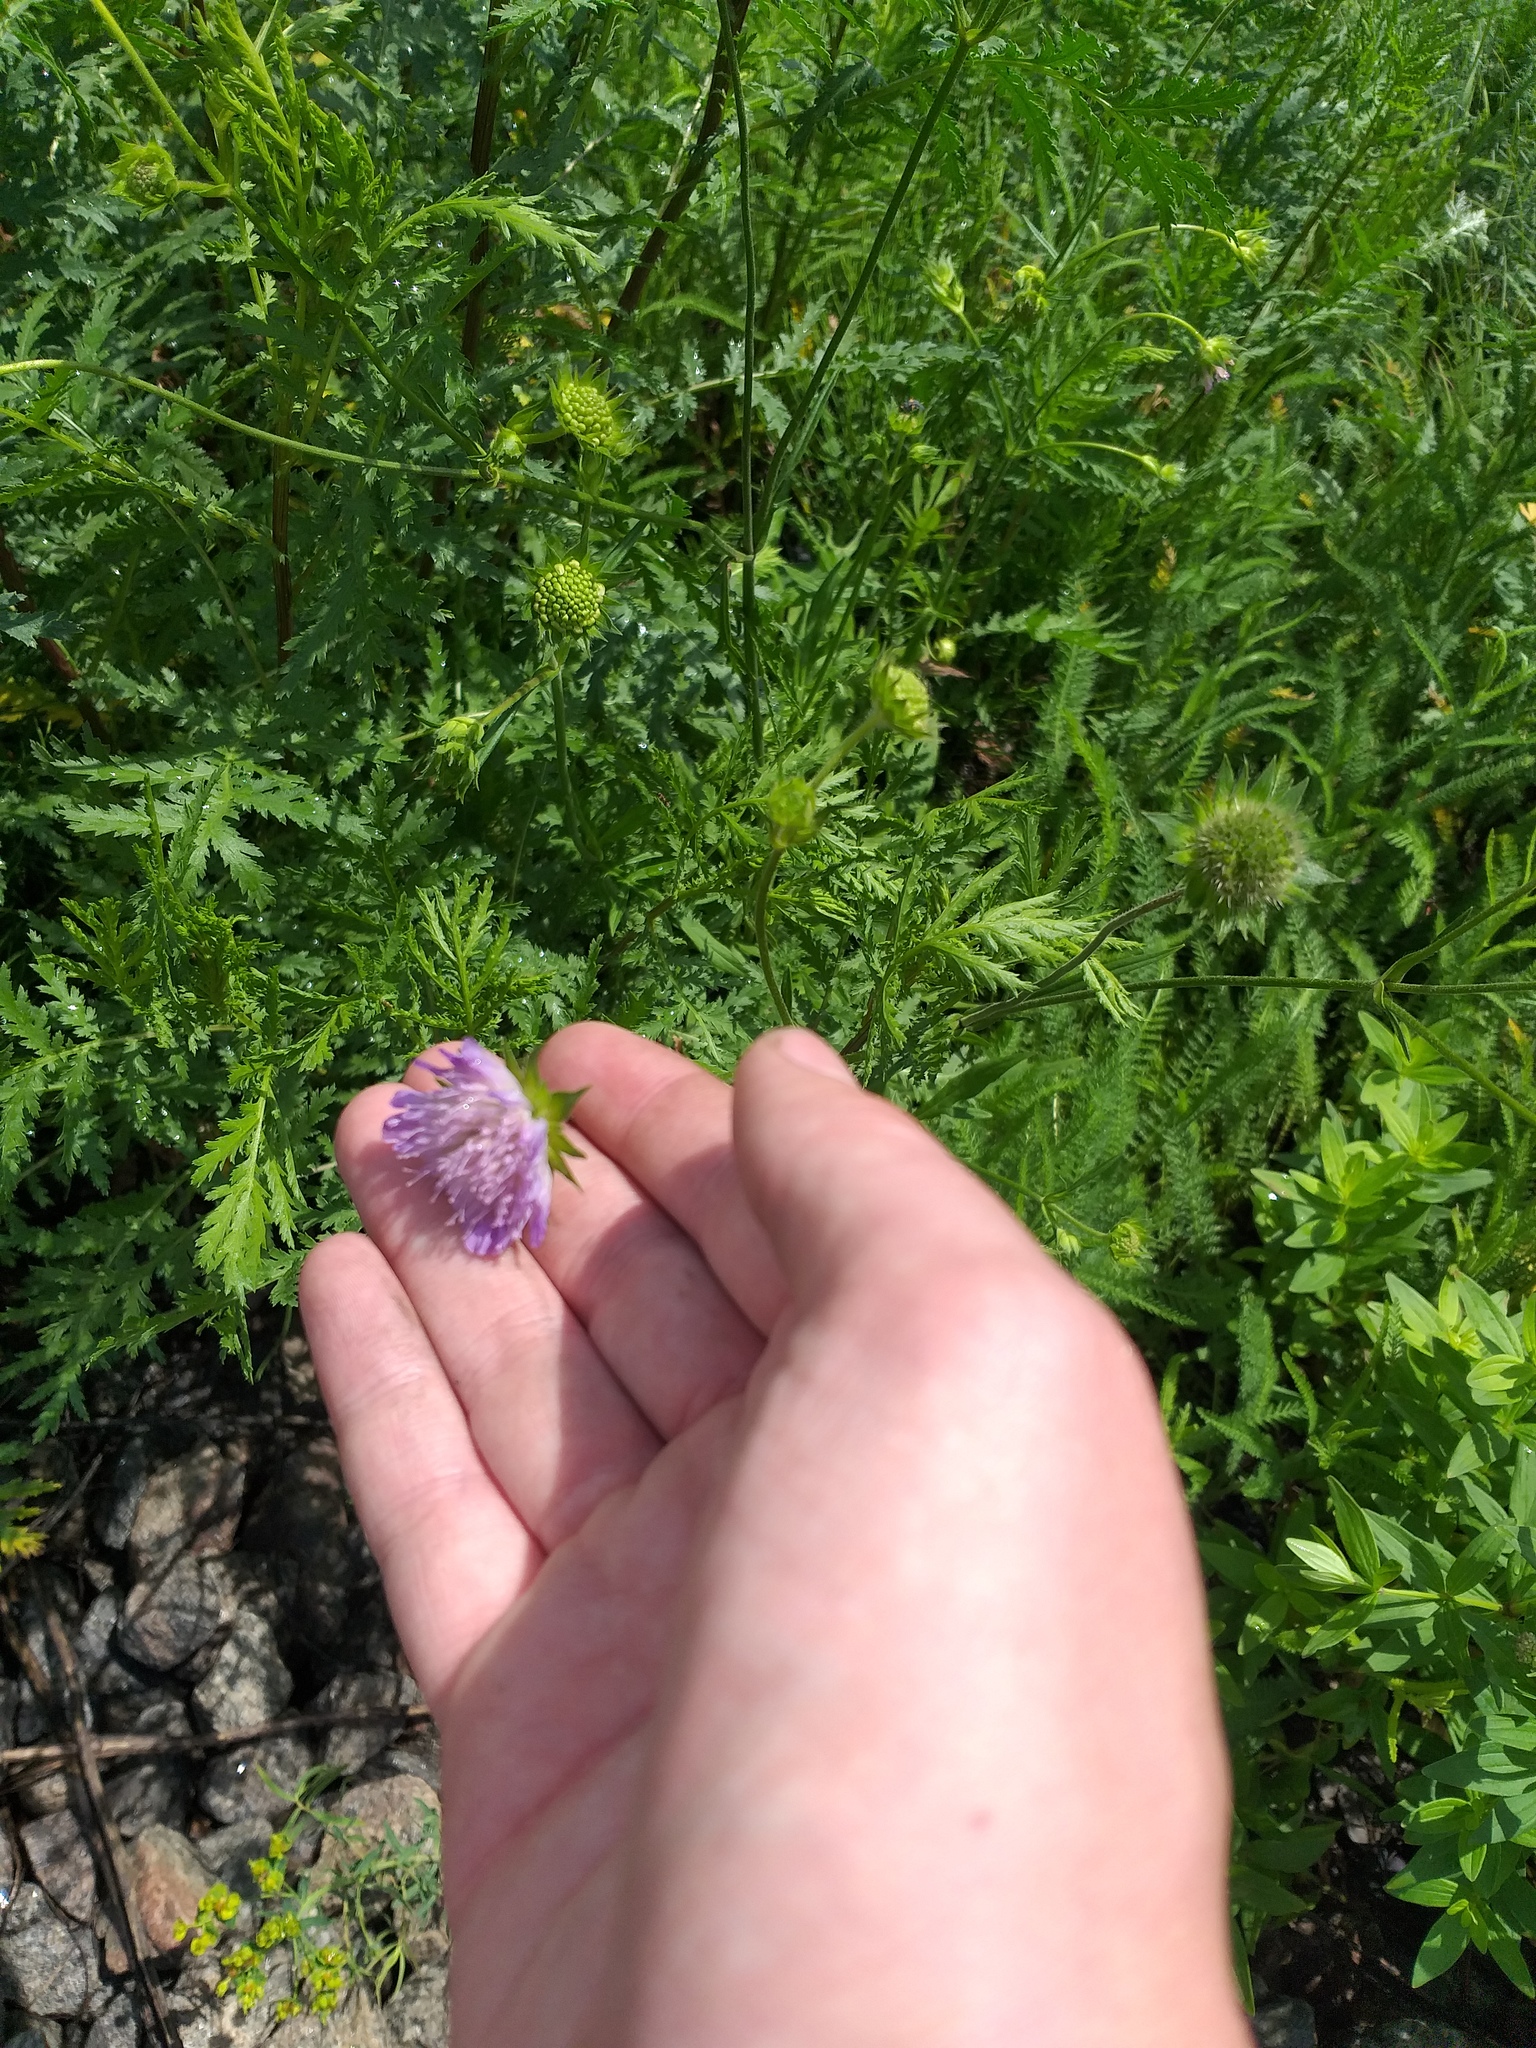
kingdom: Plantae
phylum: Tracheophyta
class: Magnoliopsida
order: Dipsacales
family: Caprifoliaceae
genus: Knautia
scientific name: Knautia arvensis
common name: Field scabiosa
